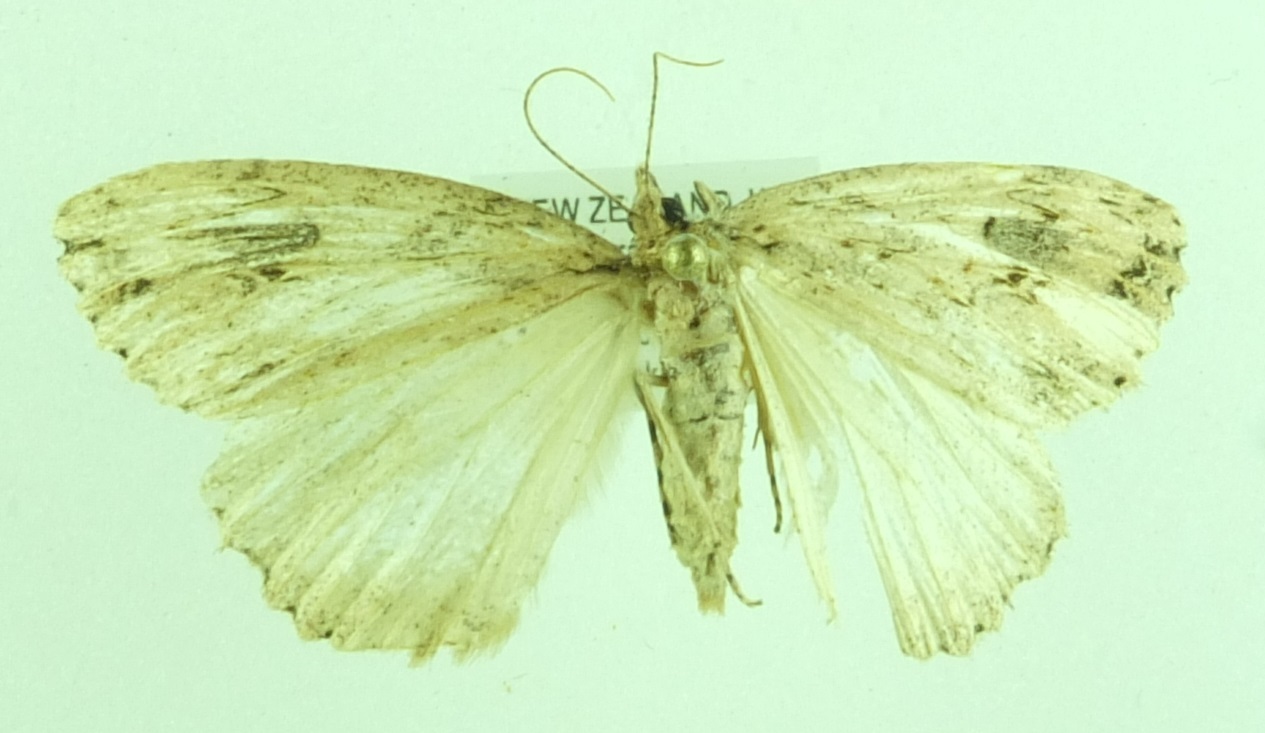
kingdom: Animalia
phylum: Arthropoda
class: Insecta
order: Lepidoptera
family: Geometridae
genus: Pseudocoremia
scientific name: Pseudocoremia rudisata
